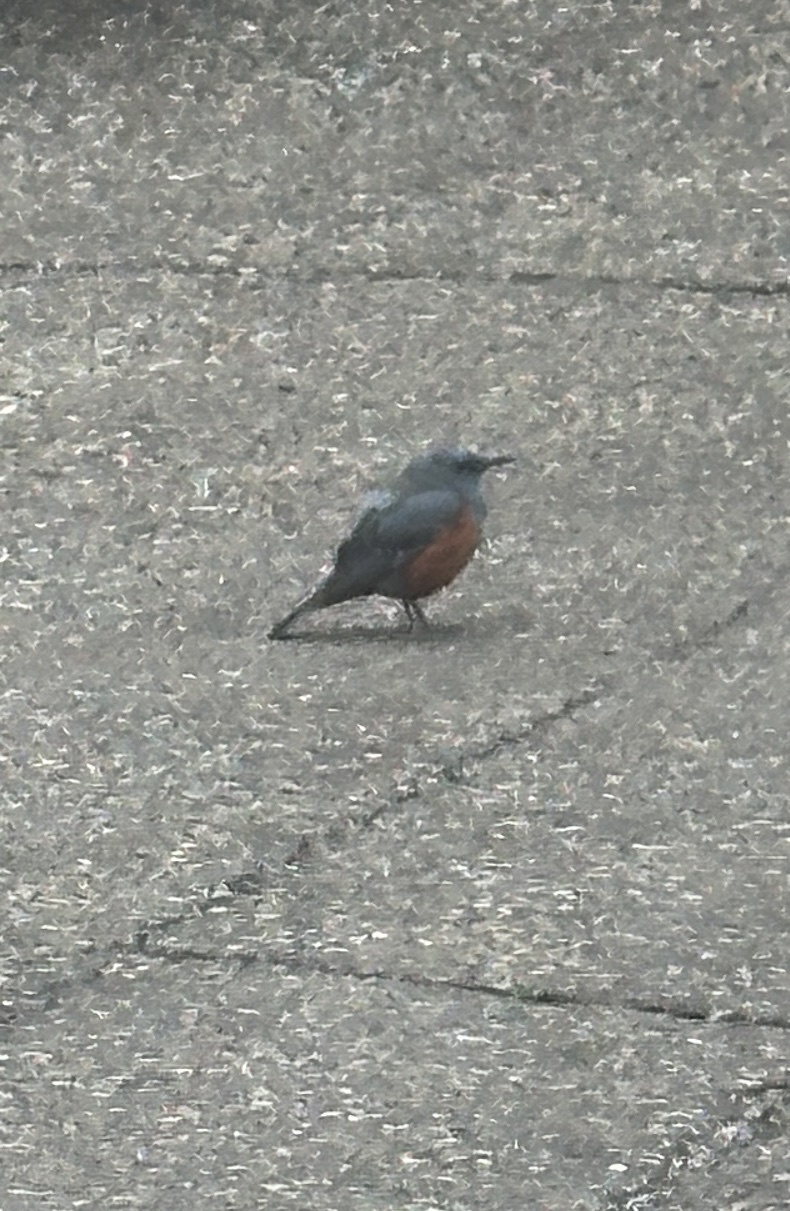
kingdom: Animalia
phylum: Chordata
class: Aves
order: Passeriformes
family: Muscicapidae
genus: Monticola
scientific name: Monticola solitarius
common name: Blue rock thrush
